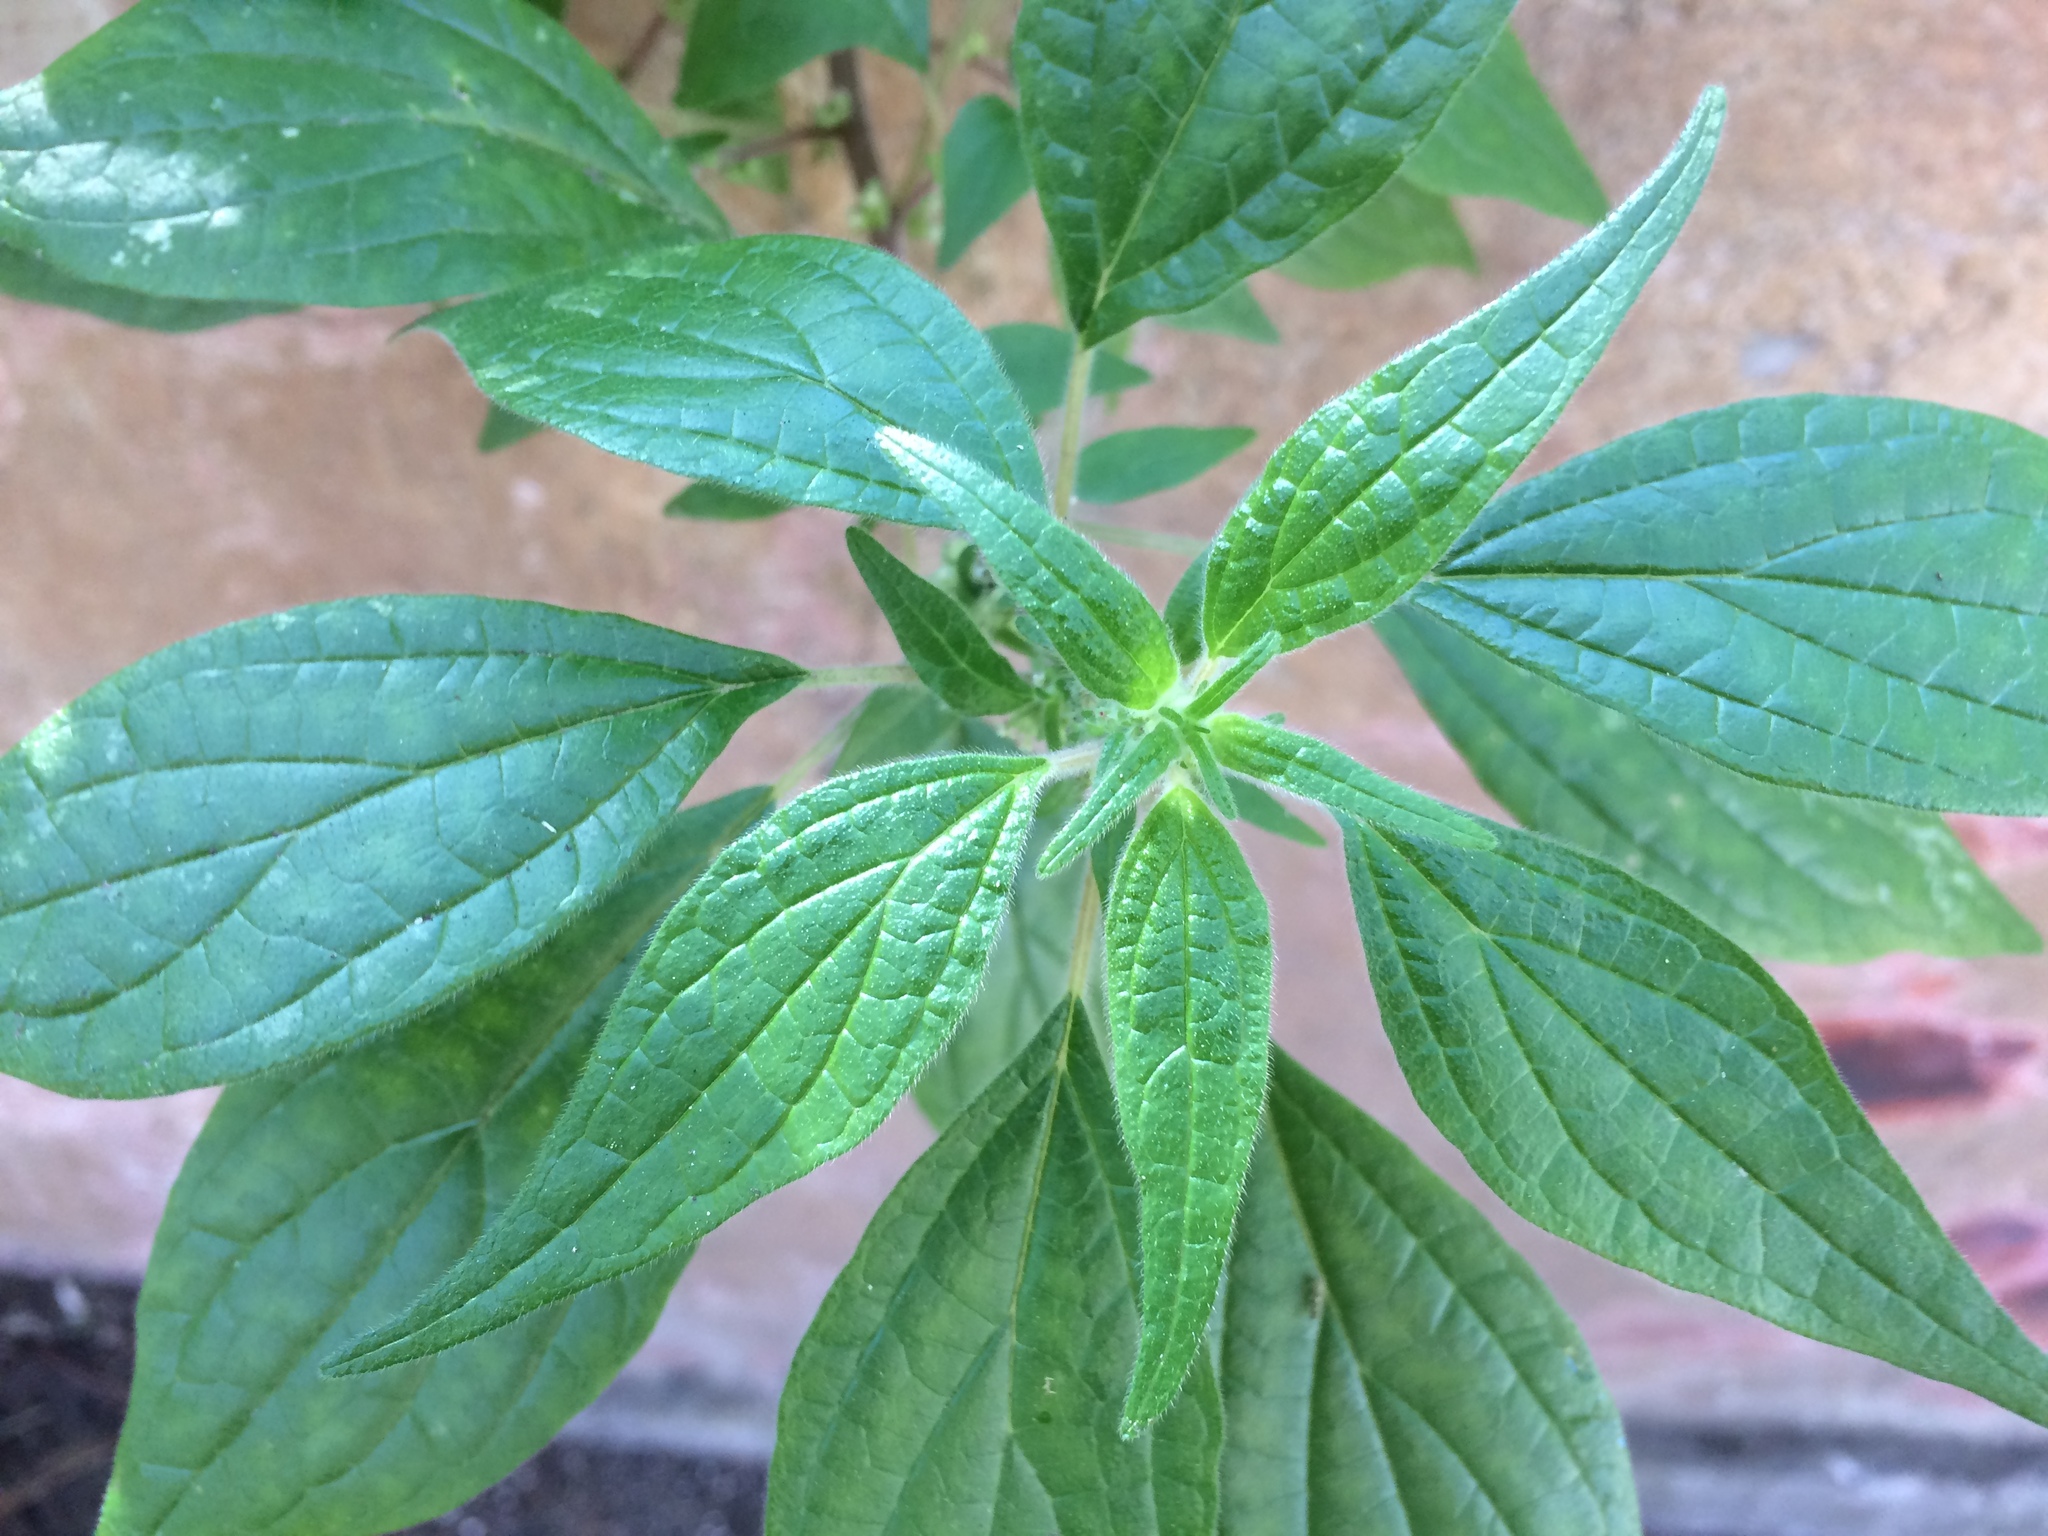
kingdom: Plantae
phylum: Tracheophyta
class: Magnoliopsida
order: Rosales
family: Urticaceae
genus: Parietaria
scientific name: Parietaria judaica
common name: Pellitory-of-the-wall
